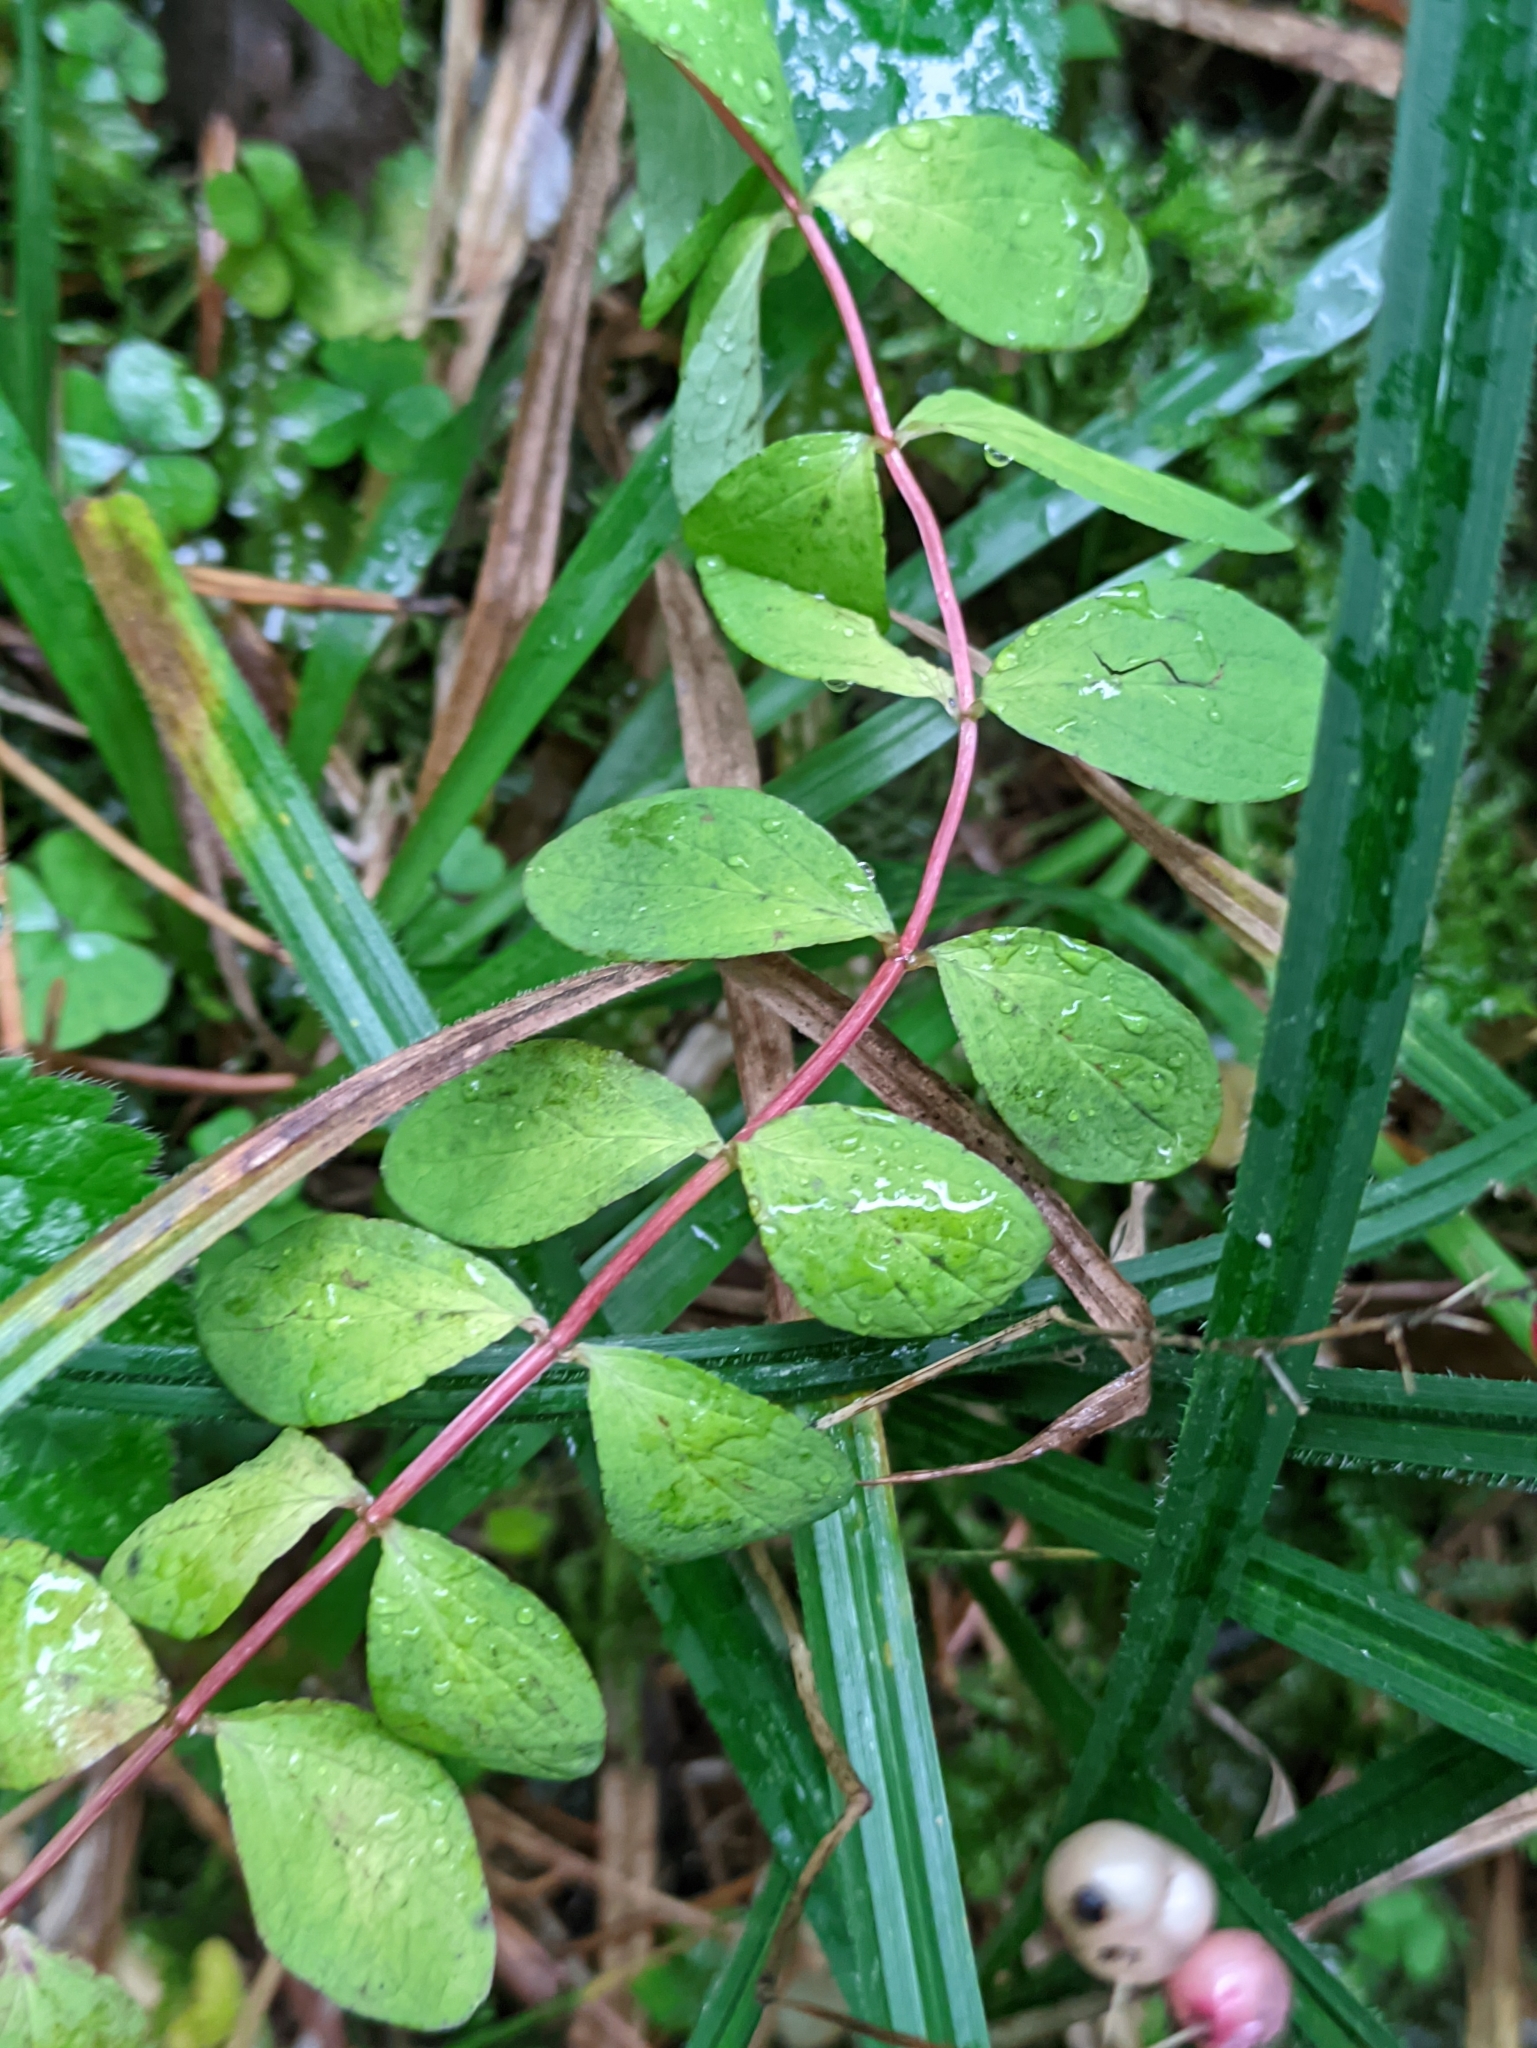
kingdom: Plantae
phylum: Tracheophyta
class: Magnoliopsida
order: Malpighiales
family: Hypericaceae
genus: Hypericum
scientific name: Hypericum maculatum
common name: Imperforate st. john's-wort
